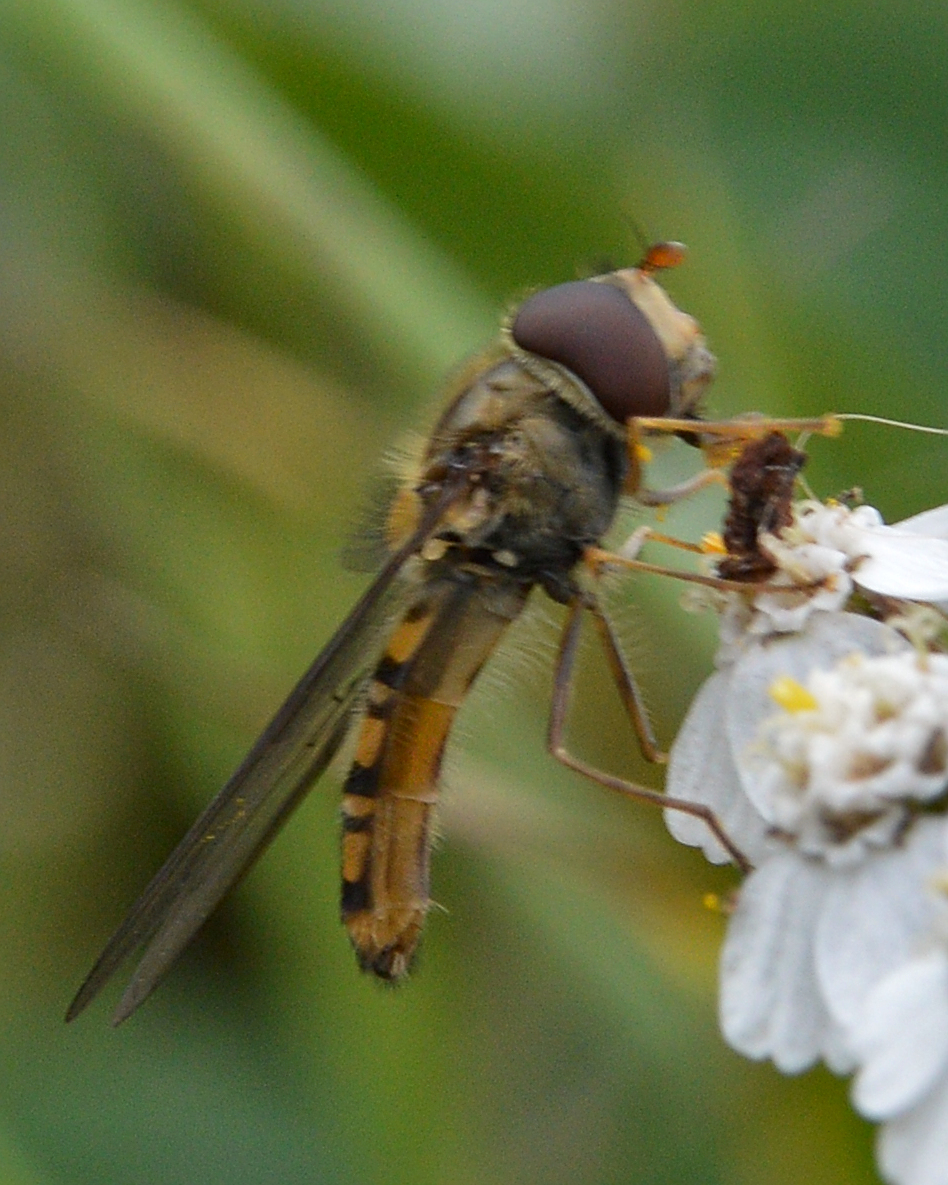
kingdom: Animalia
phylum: Arthropoda
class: Insecta
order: Diptera
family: Syrphidae
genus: Episyrphus
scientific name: Episyrphus balteatus
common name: Marmalade hoverfly
